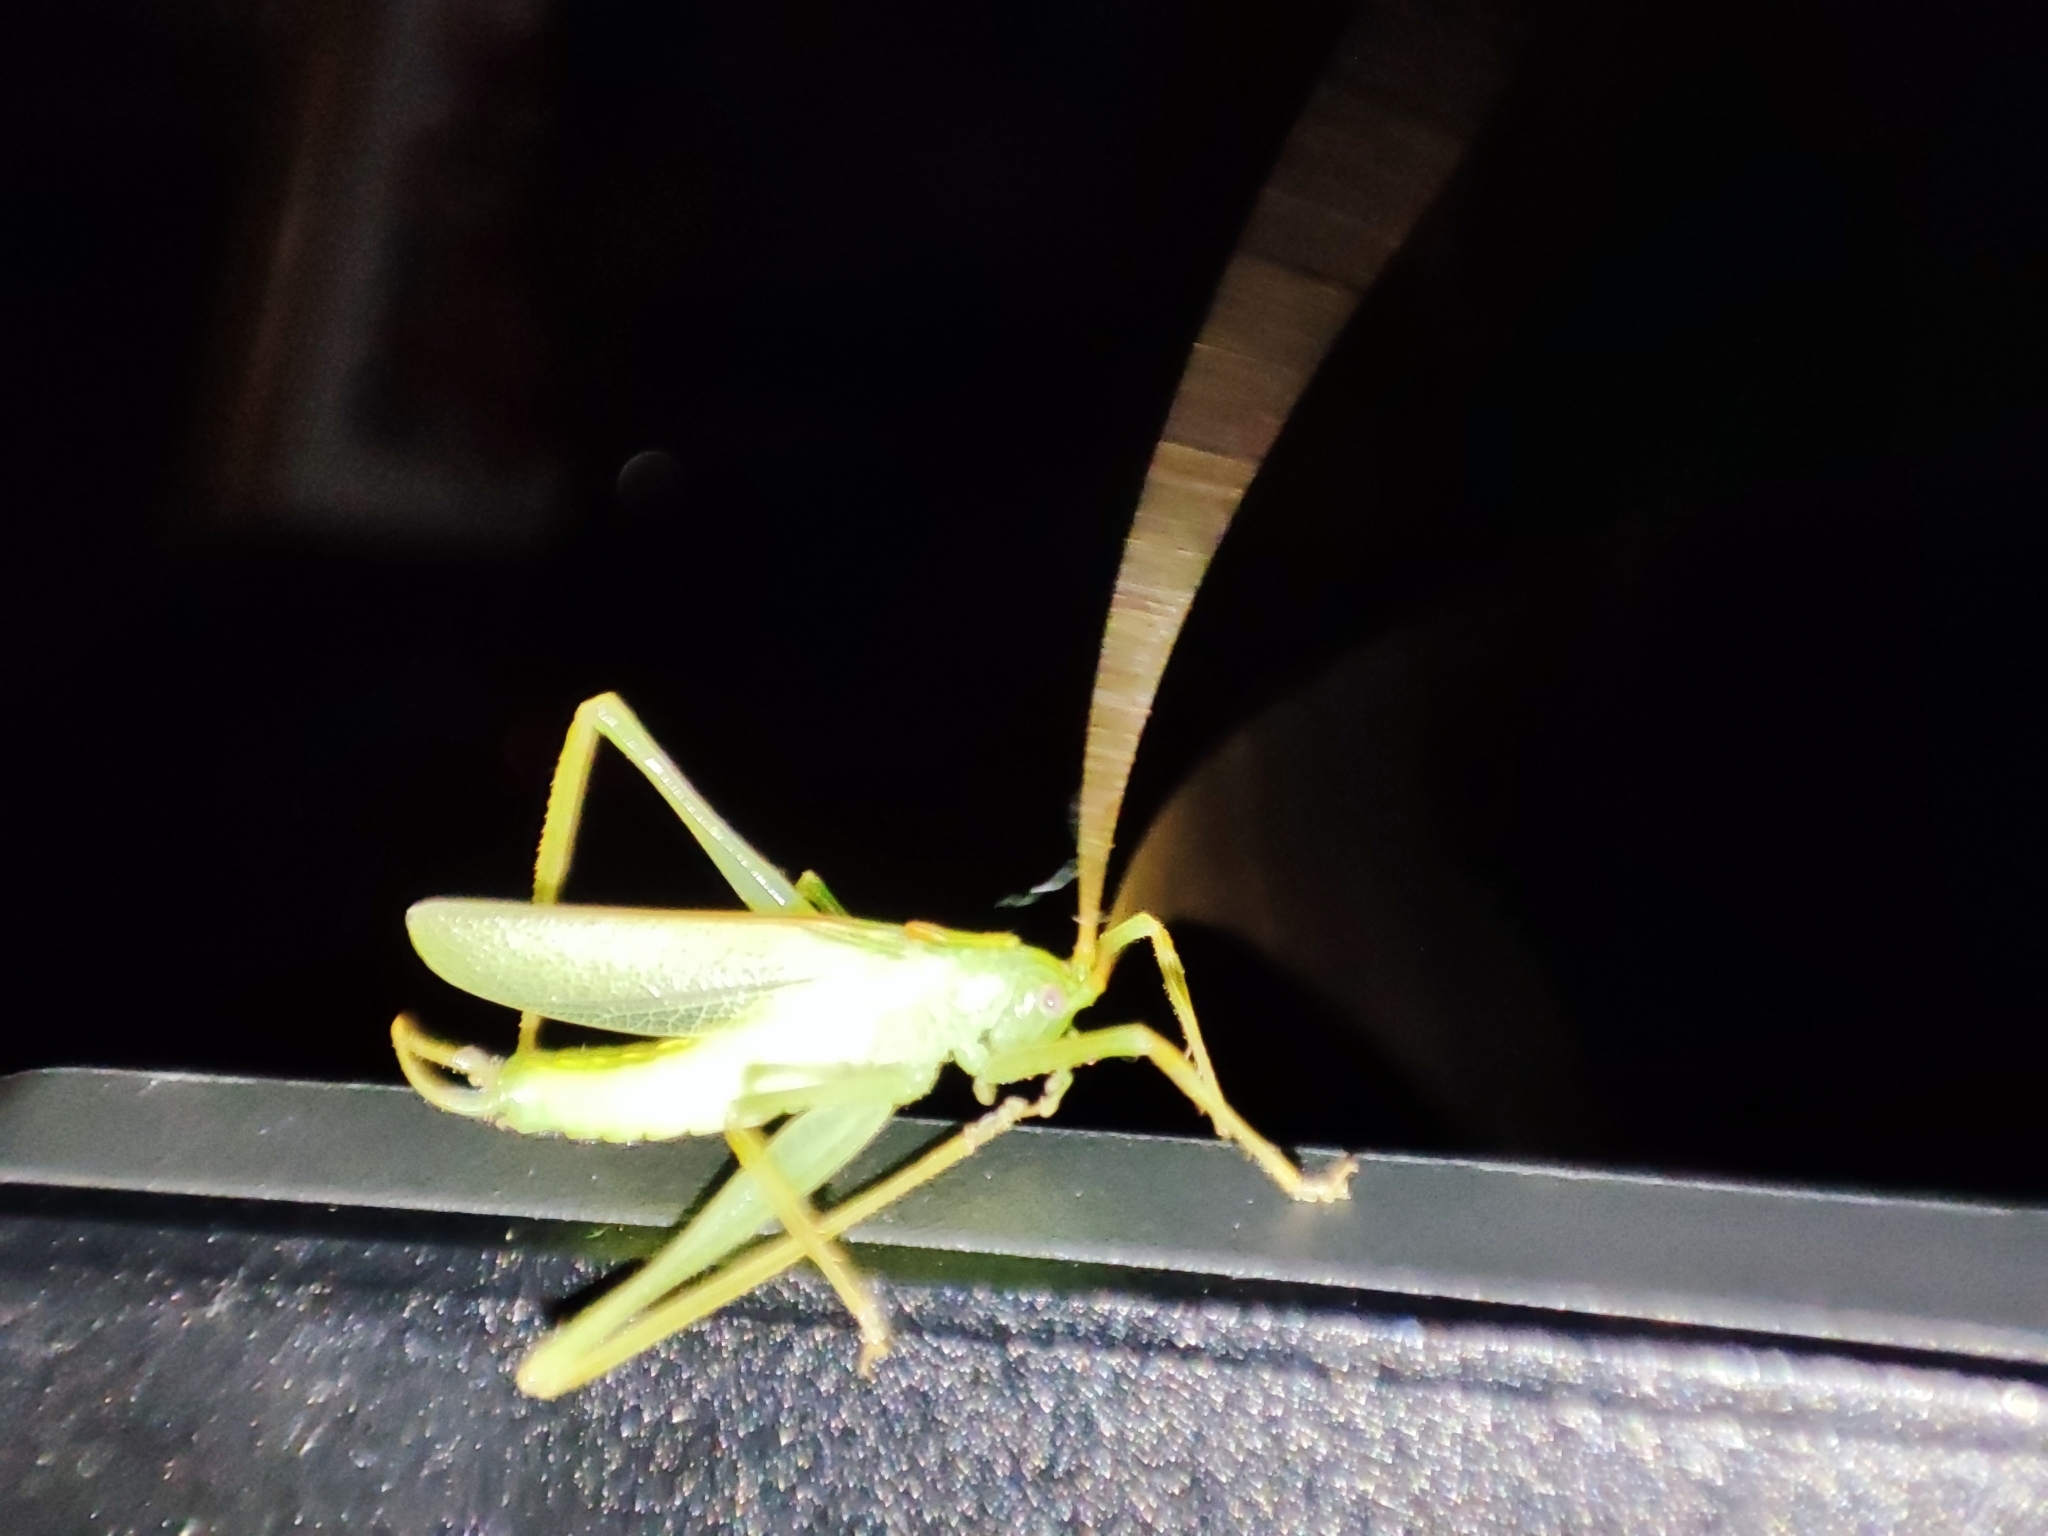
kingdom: Animalia
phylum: Arthropoda
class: Insecta
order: Orthoptera
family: Tettigoniidae
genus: Meconema
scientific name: Meconema thalassinum
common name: Oak bush-cricket
